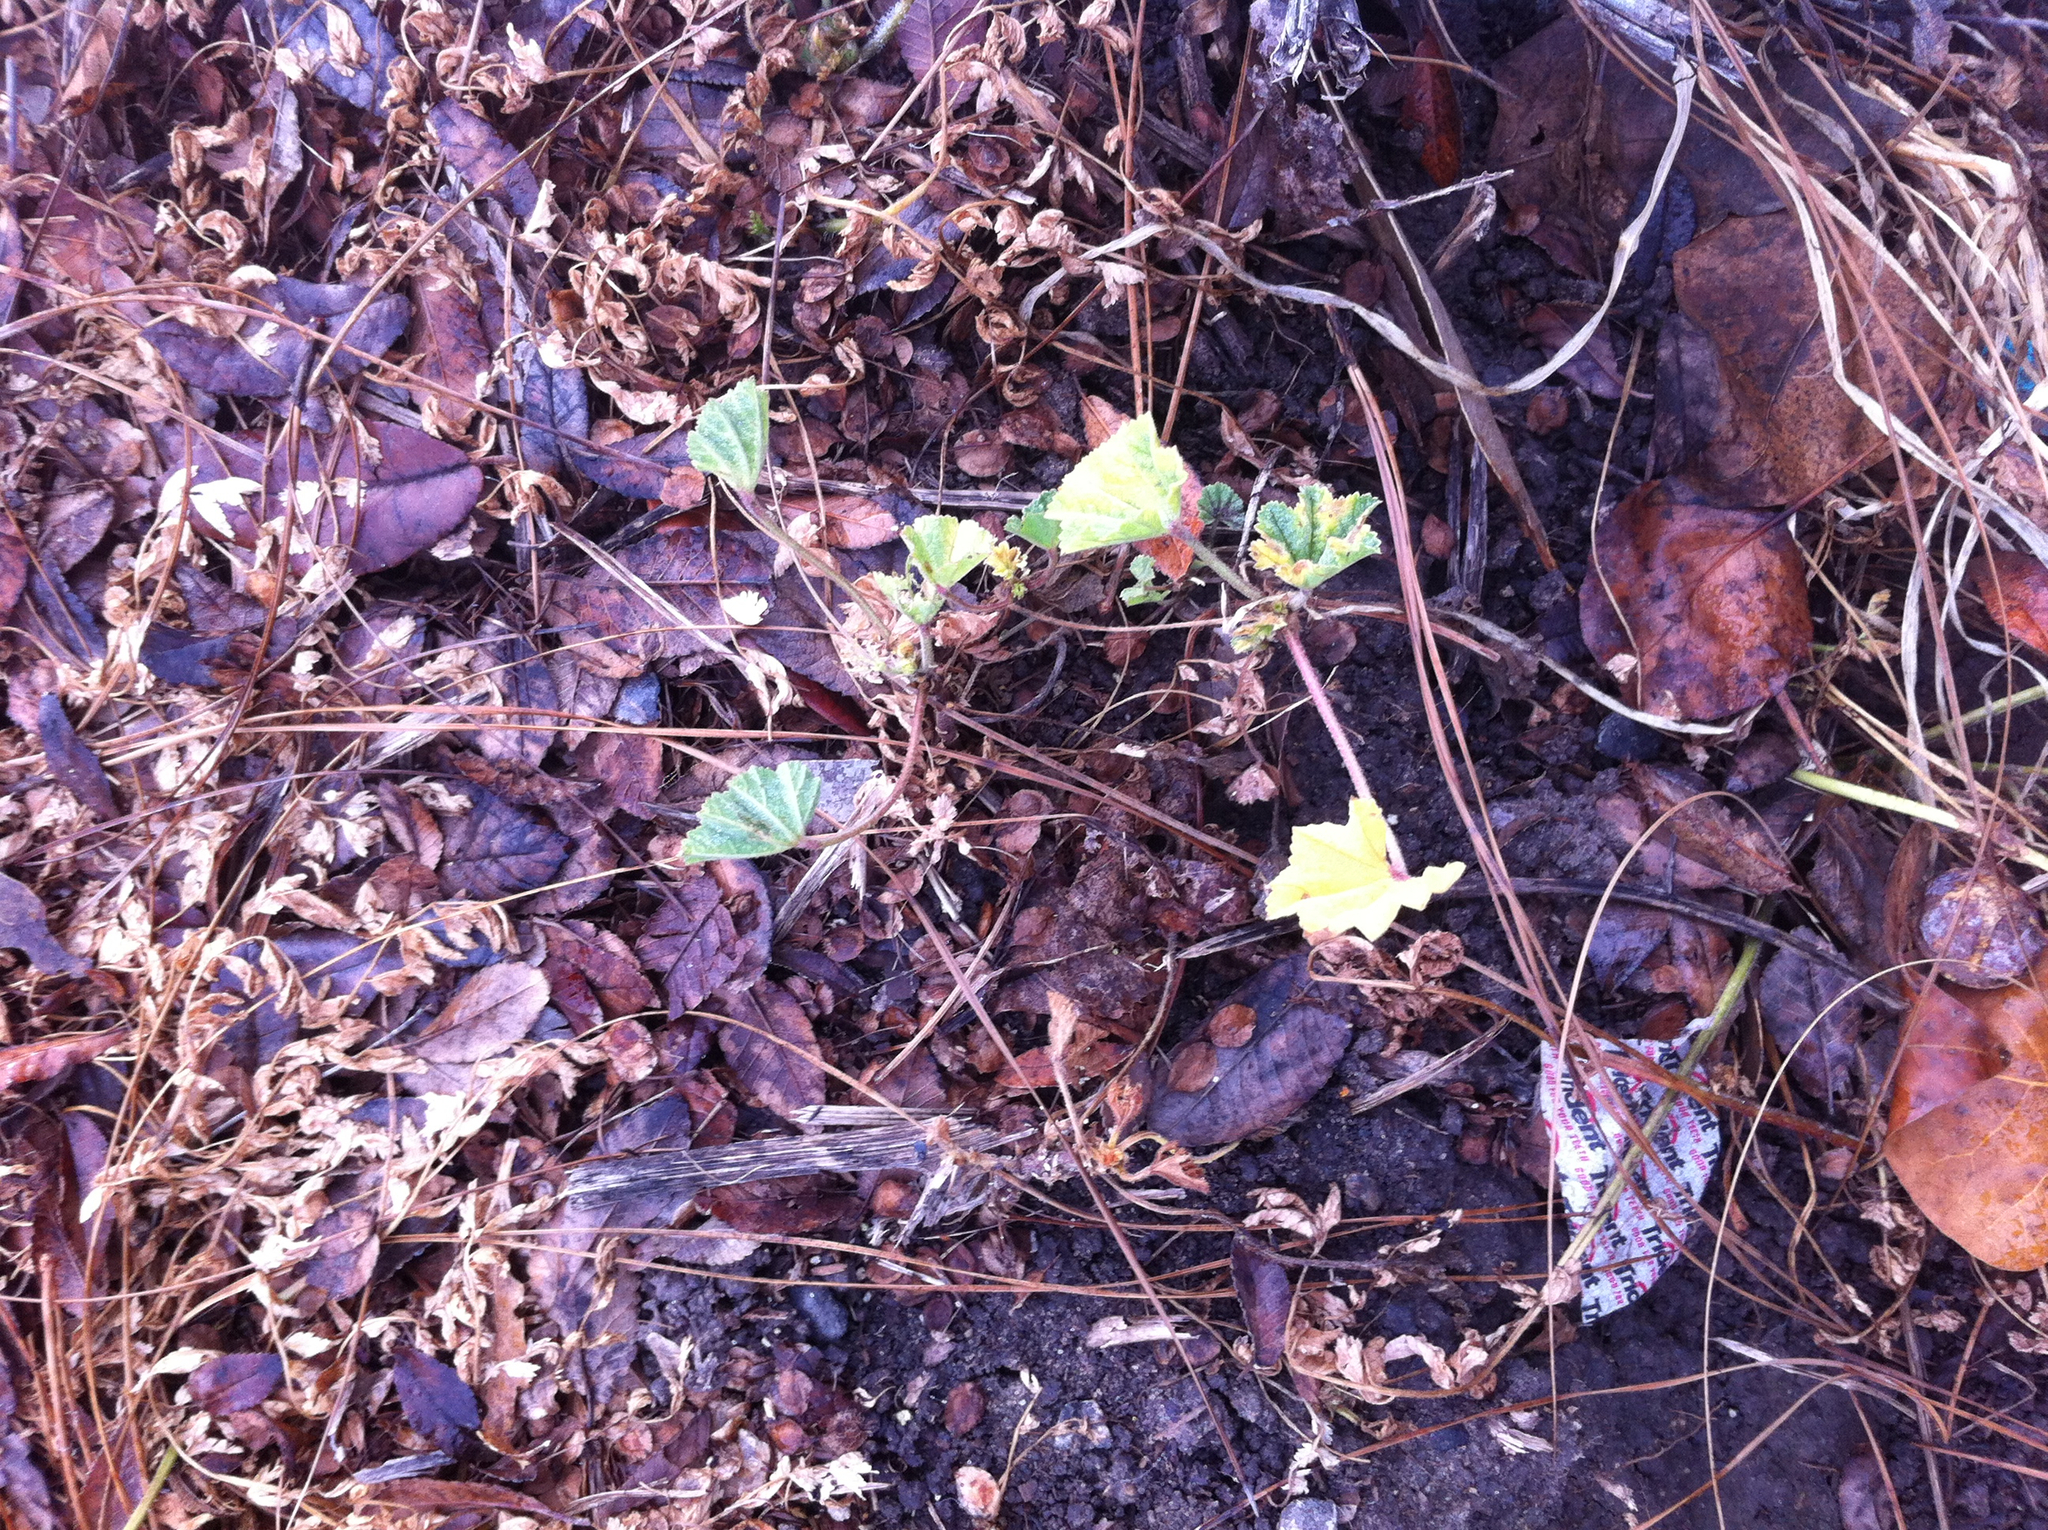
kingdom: Plantae
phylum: Tracheophyta
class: Magnoliopsida
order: Malvales
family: Malvaceae
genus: Malva
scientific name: Malva parviflora
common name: Least mallow
